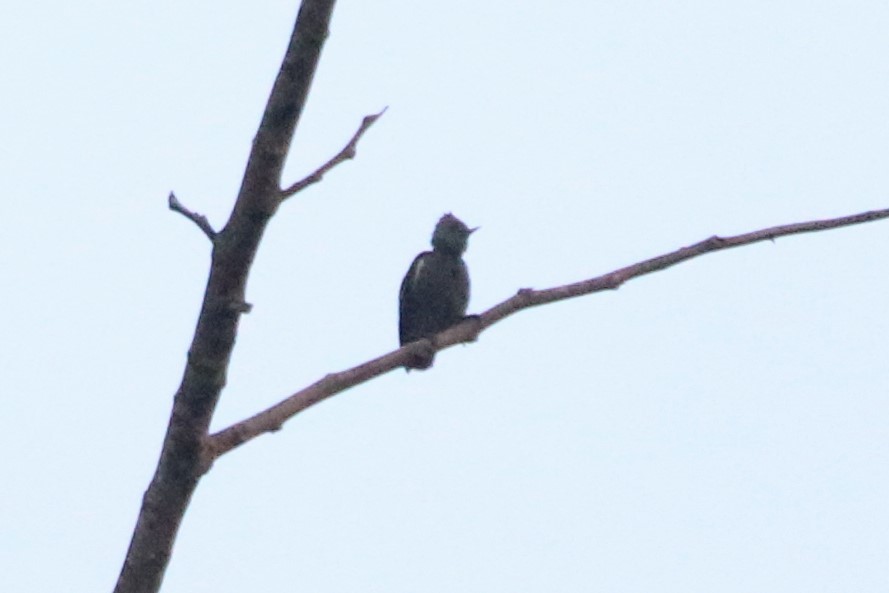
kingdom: Animalia
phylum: Chordata
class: Aves
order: Piciformes
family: Picidae
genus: Hemicircus
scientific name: Hemicircus concretus
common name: Grey-and-buff woodpecker
